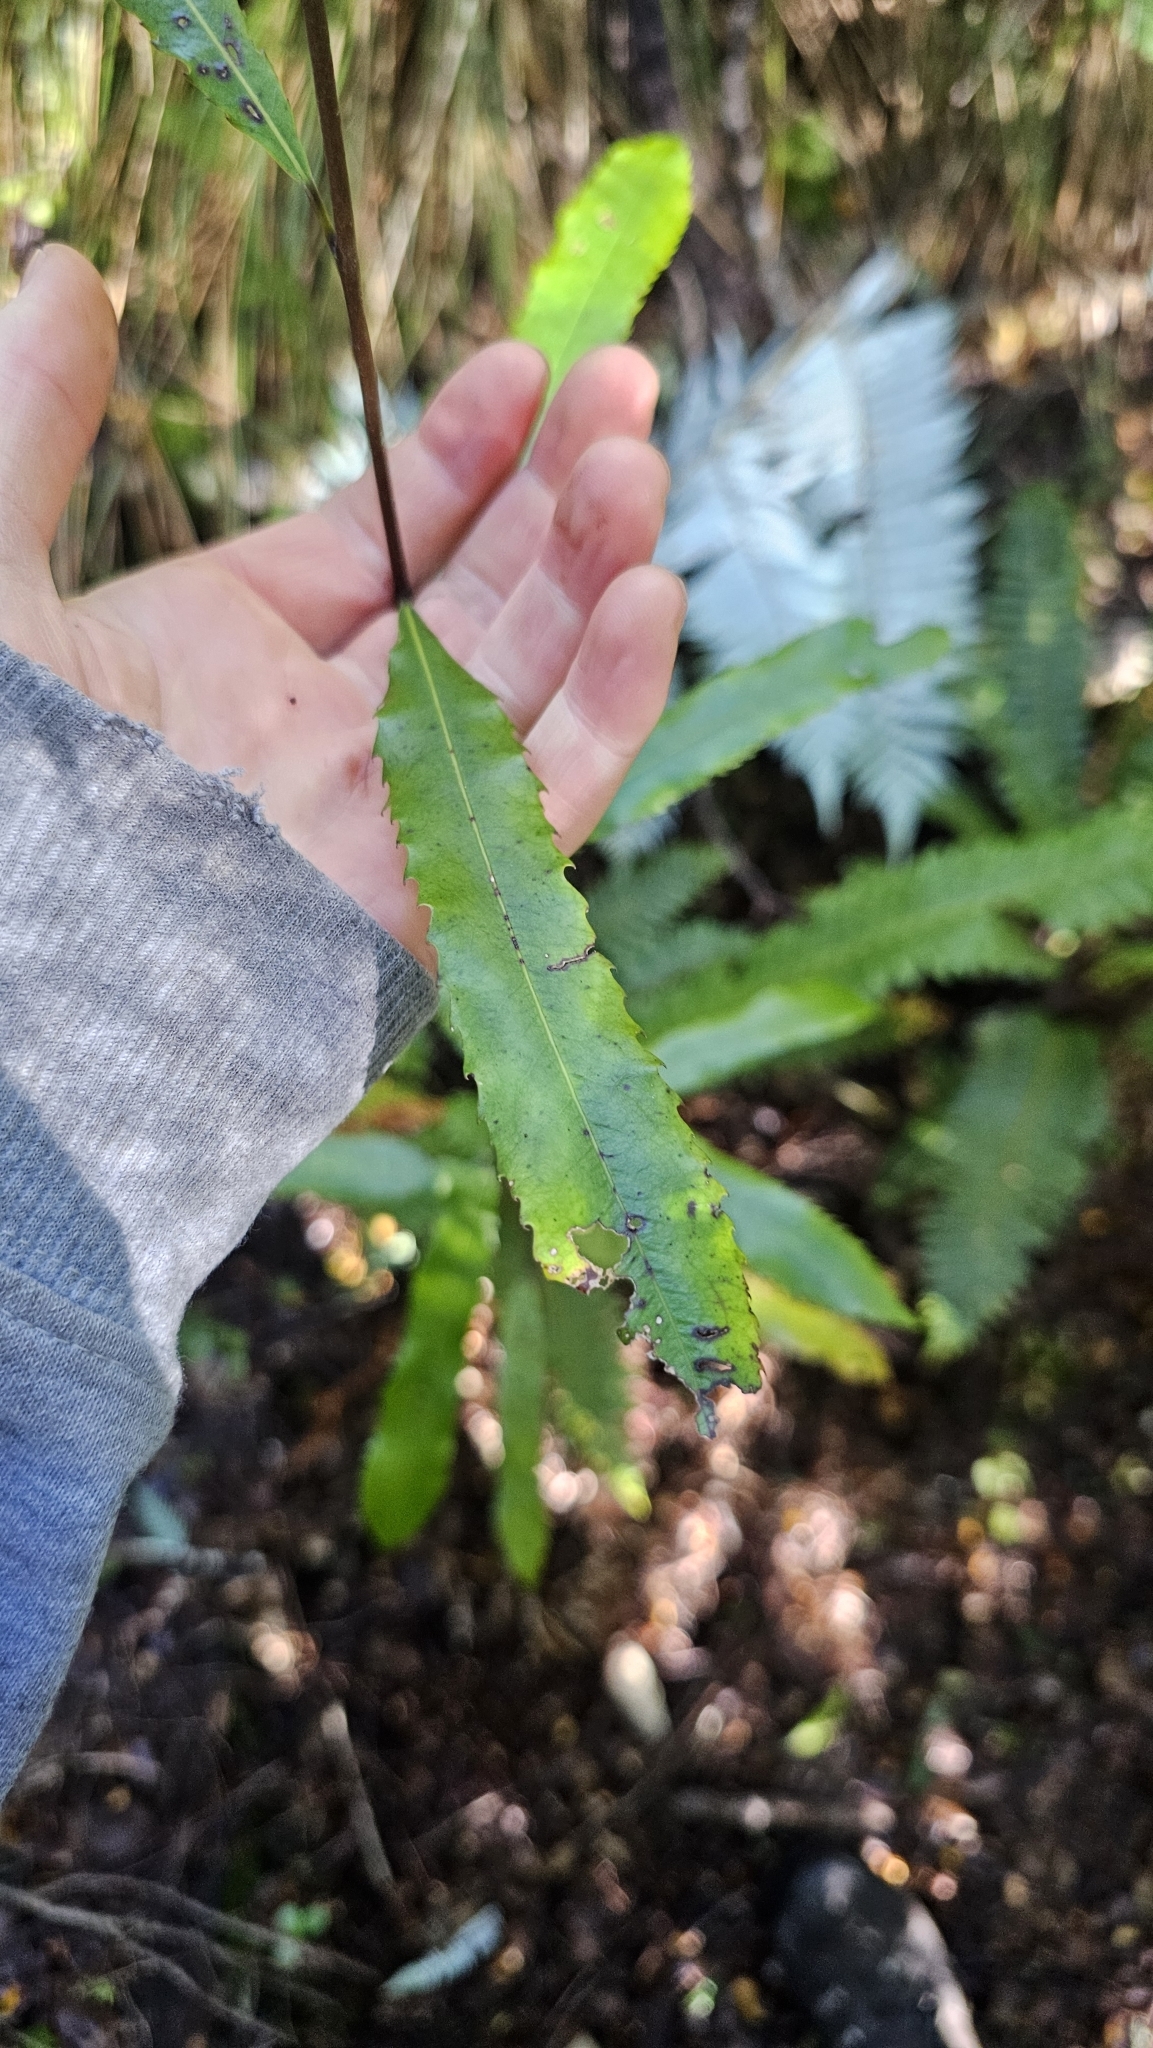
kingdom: Plantae
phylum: Tracheophyta
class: Magnoliopsida
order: Oxalidales
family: Elaeocarpaceae
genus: Elaeocarpus
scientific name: Elaeocarpus dentatus
